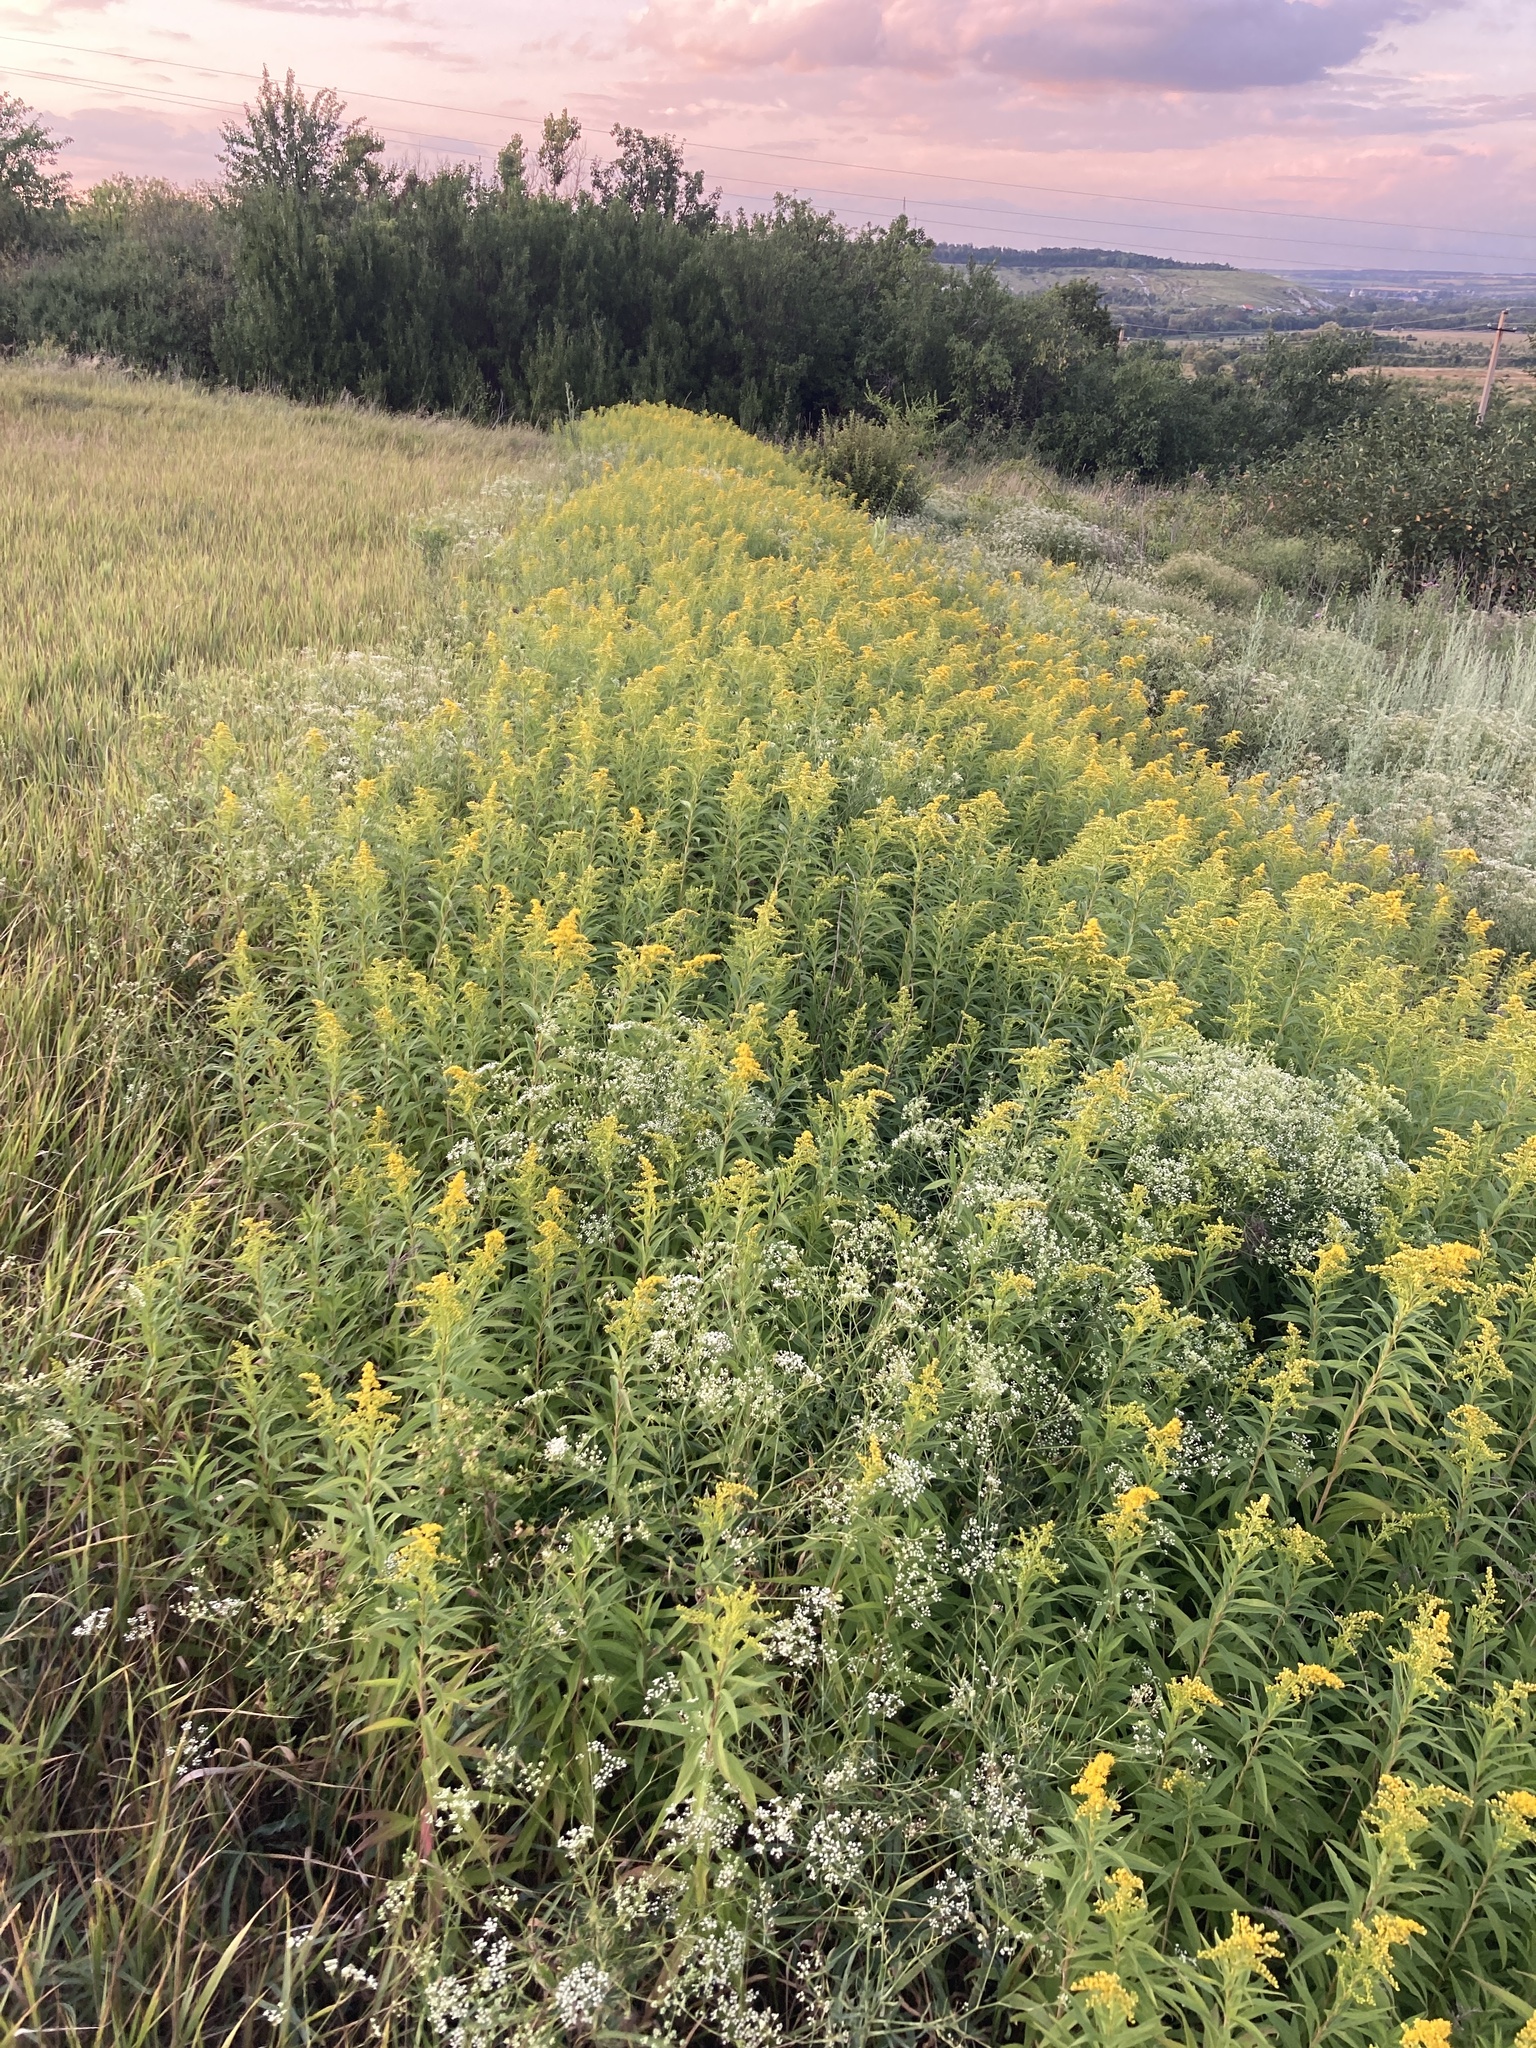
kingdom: Plantae
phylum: Tracheophyta
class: Magnoliopsida
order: Asterales
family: Asteraceae
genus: Solidago
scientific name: Solidago gigantea
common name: Giant goldenrod
